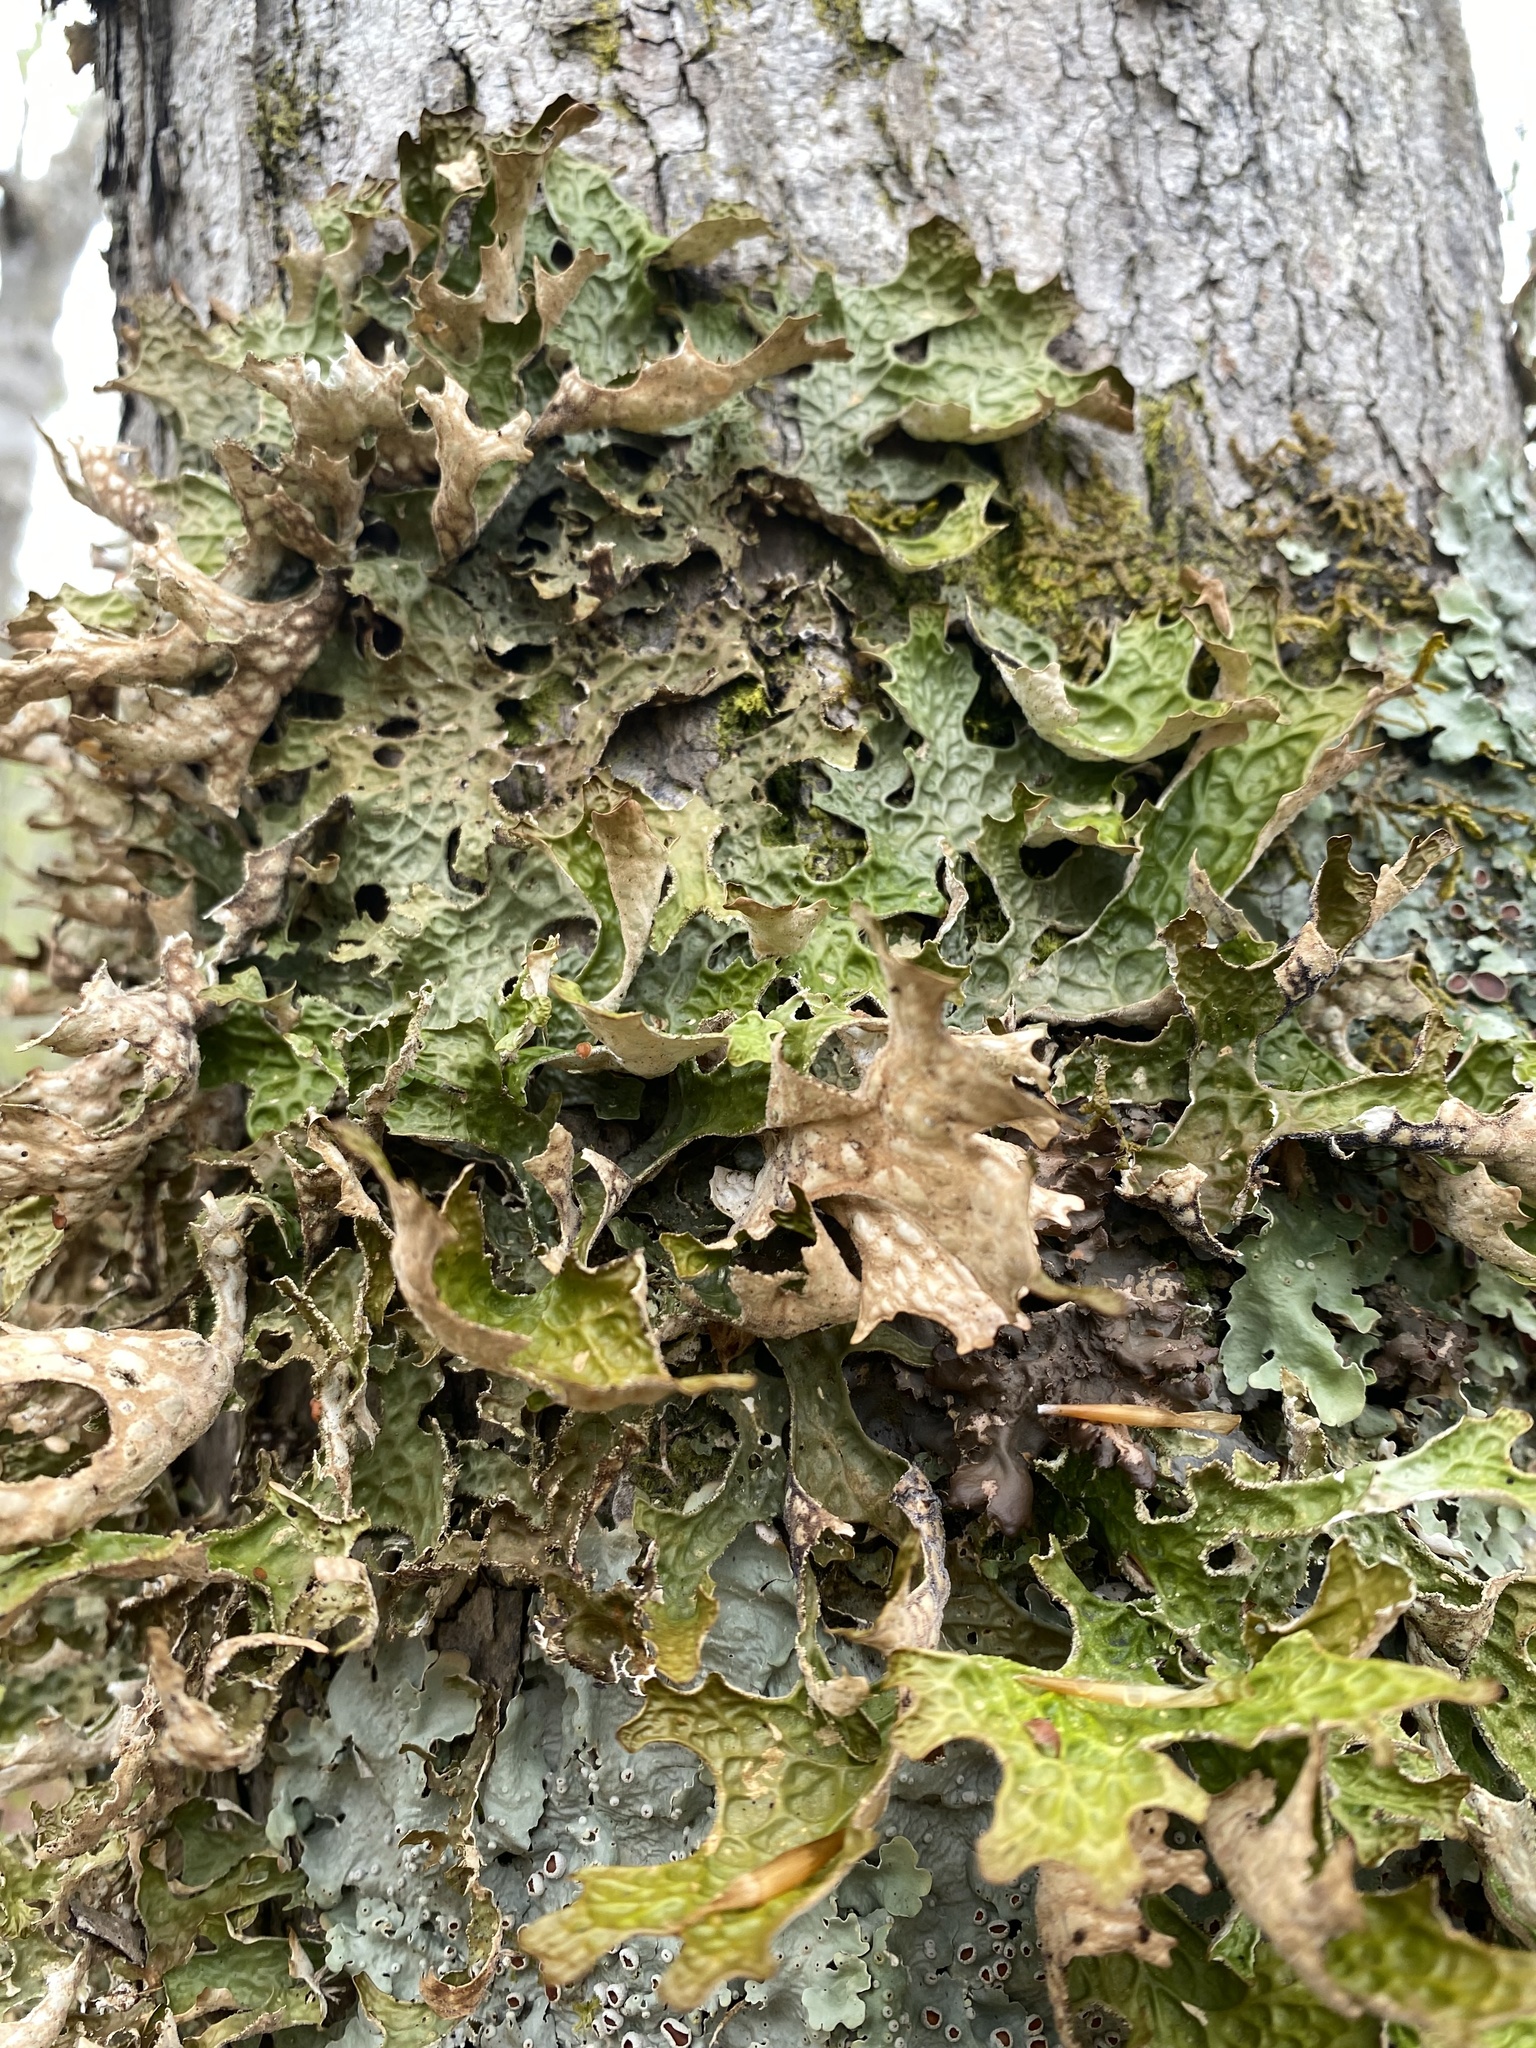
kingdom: Fungi
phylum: Ascomycota
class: Lecanoromycetes
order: Peltigerales
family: Lobariaceae
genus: Lobaria
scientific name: Lobaria pulmonaria
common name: Lungwort
